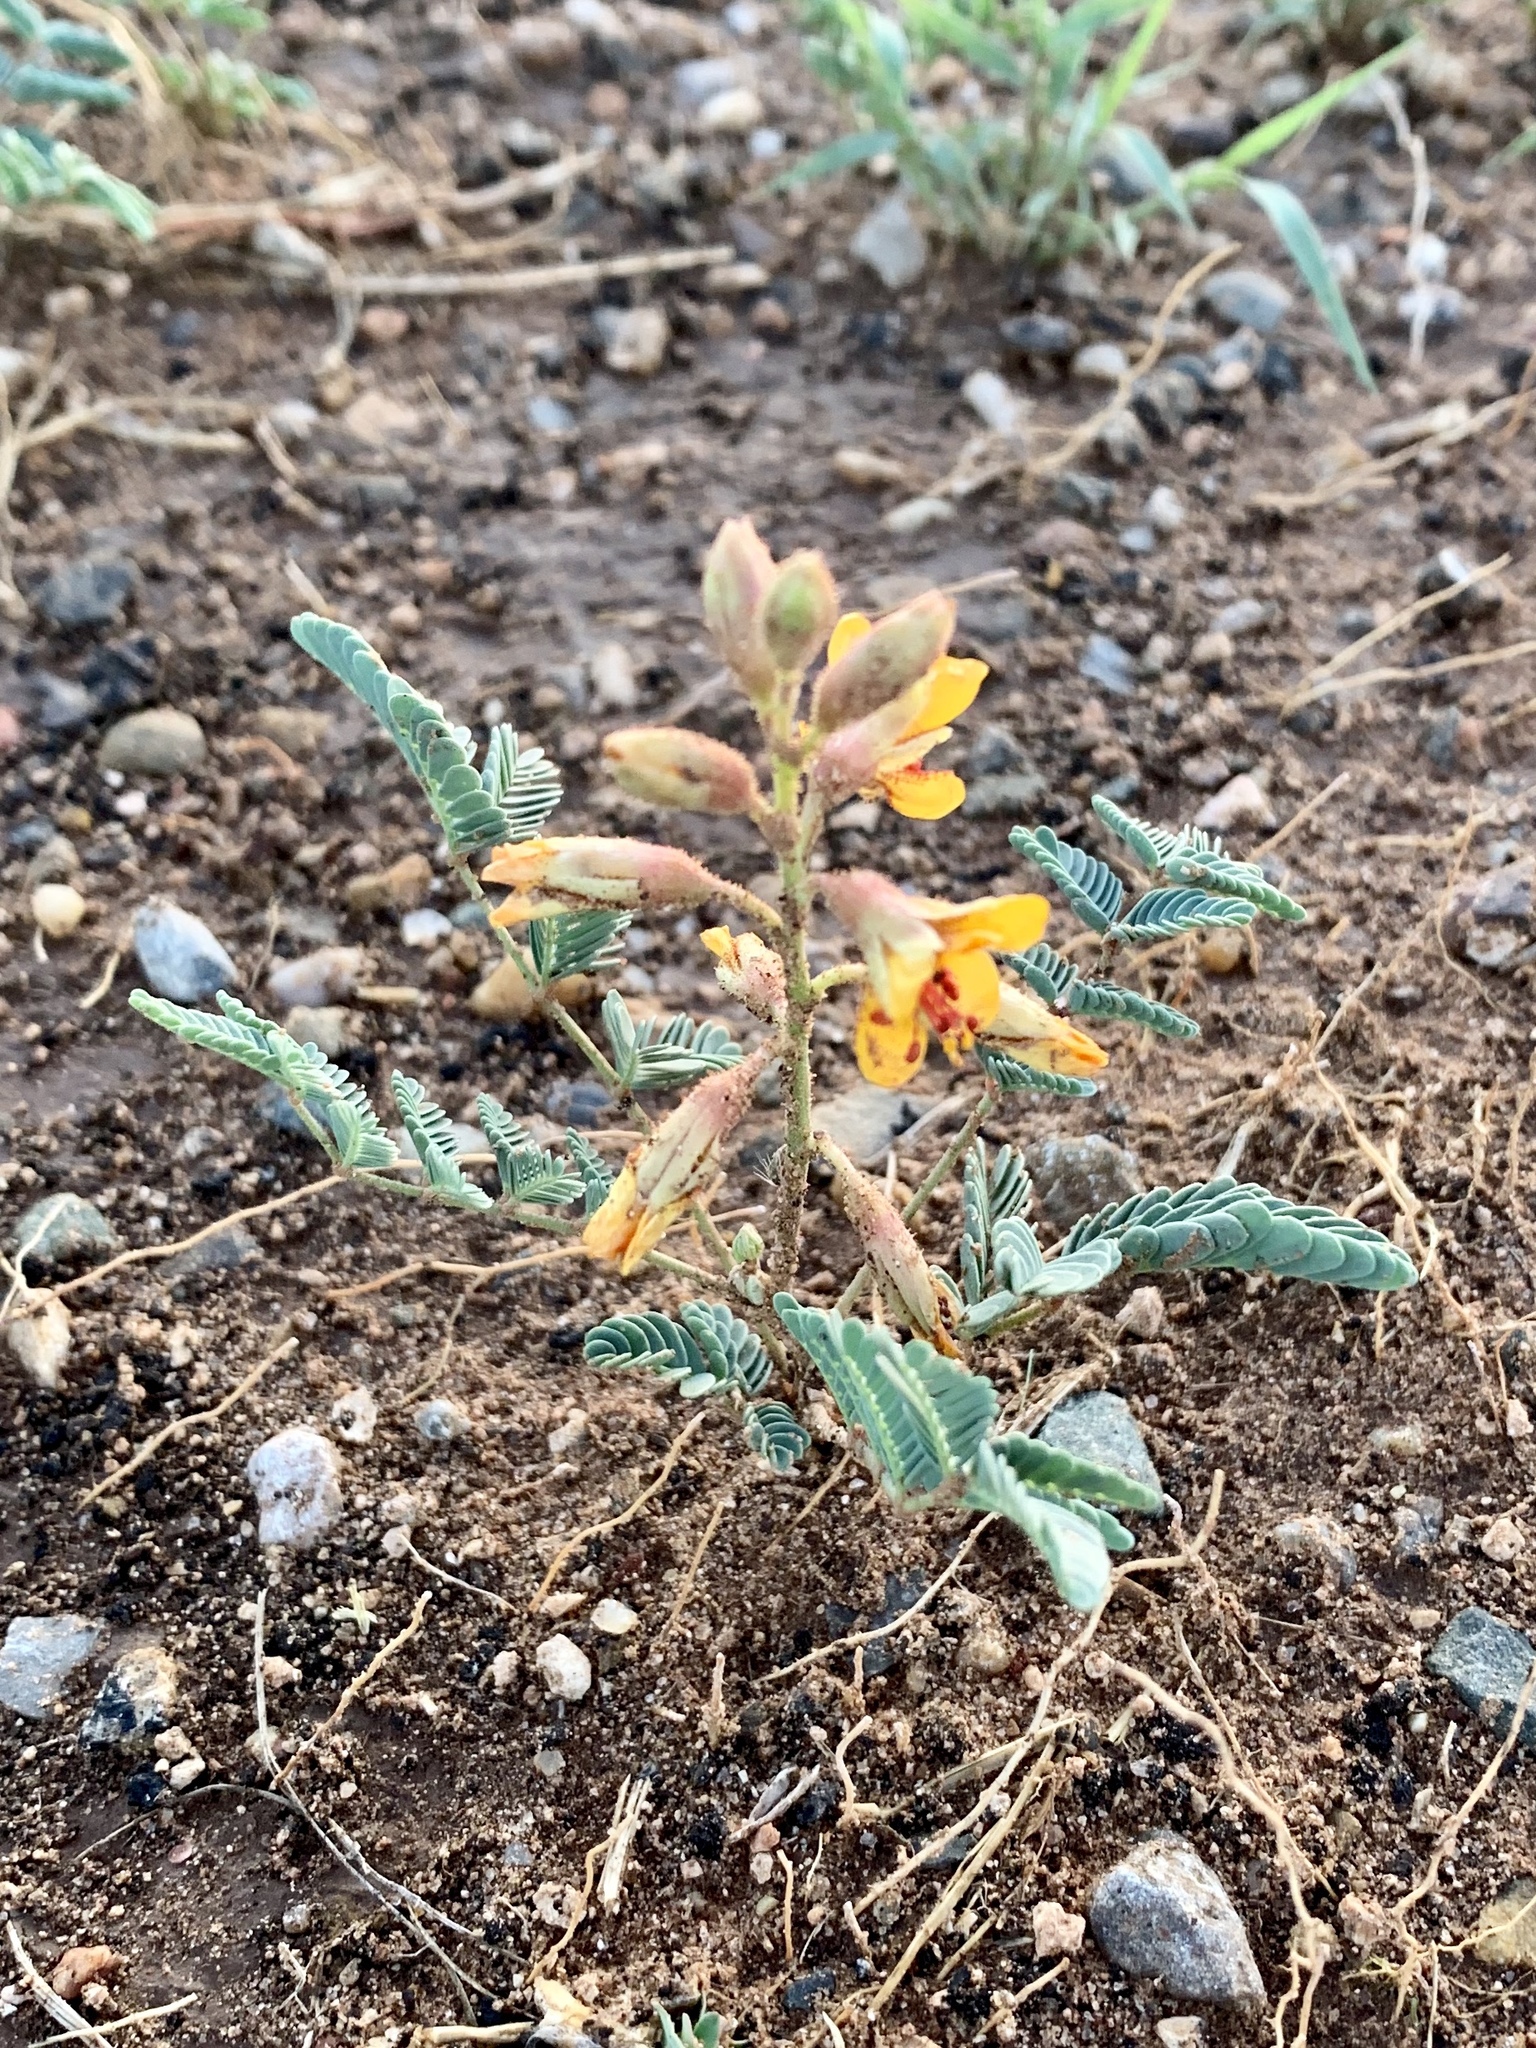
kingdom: Plantae
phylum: Tracheophyta
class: Magnoliopsida
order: Fabales
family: Fabaceae
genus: Hoffmannseggia
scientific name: Hoffmannseggia glauca
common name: Pignut
